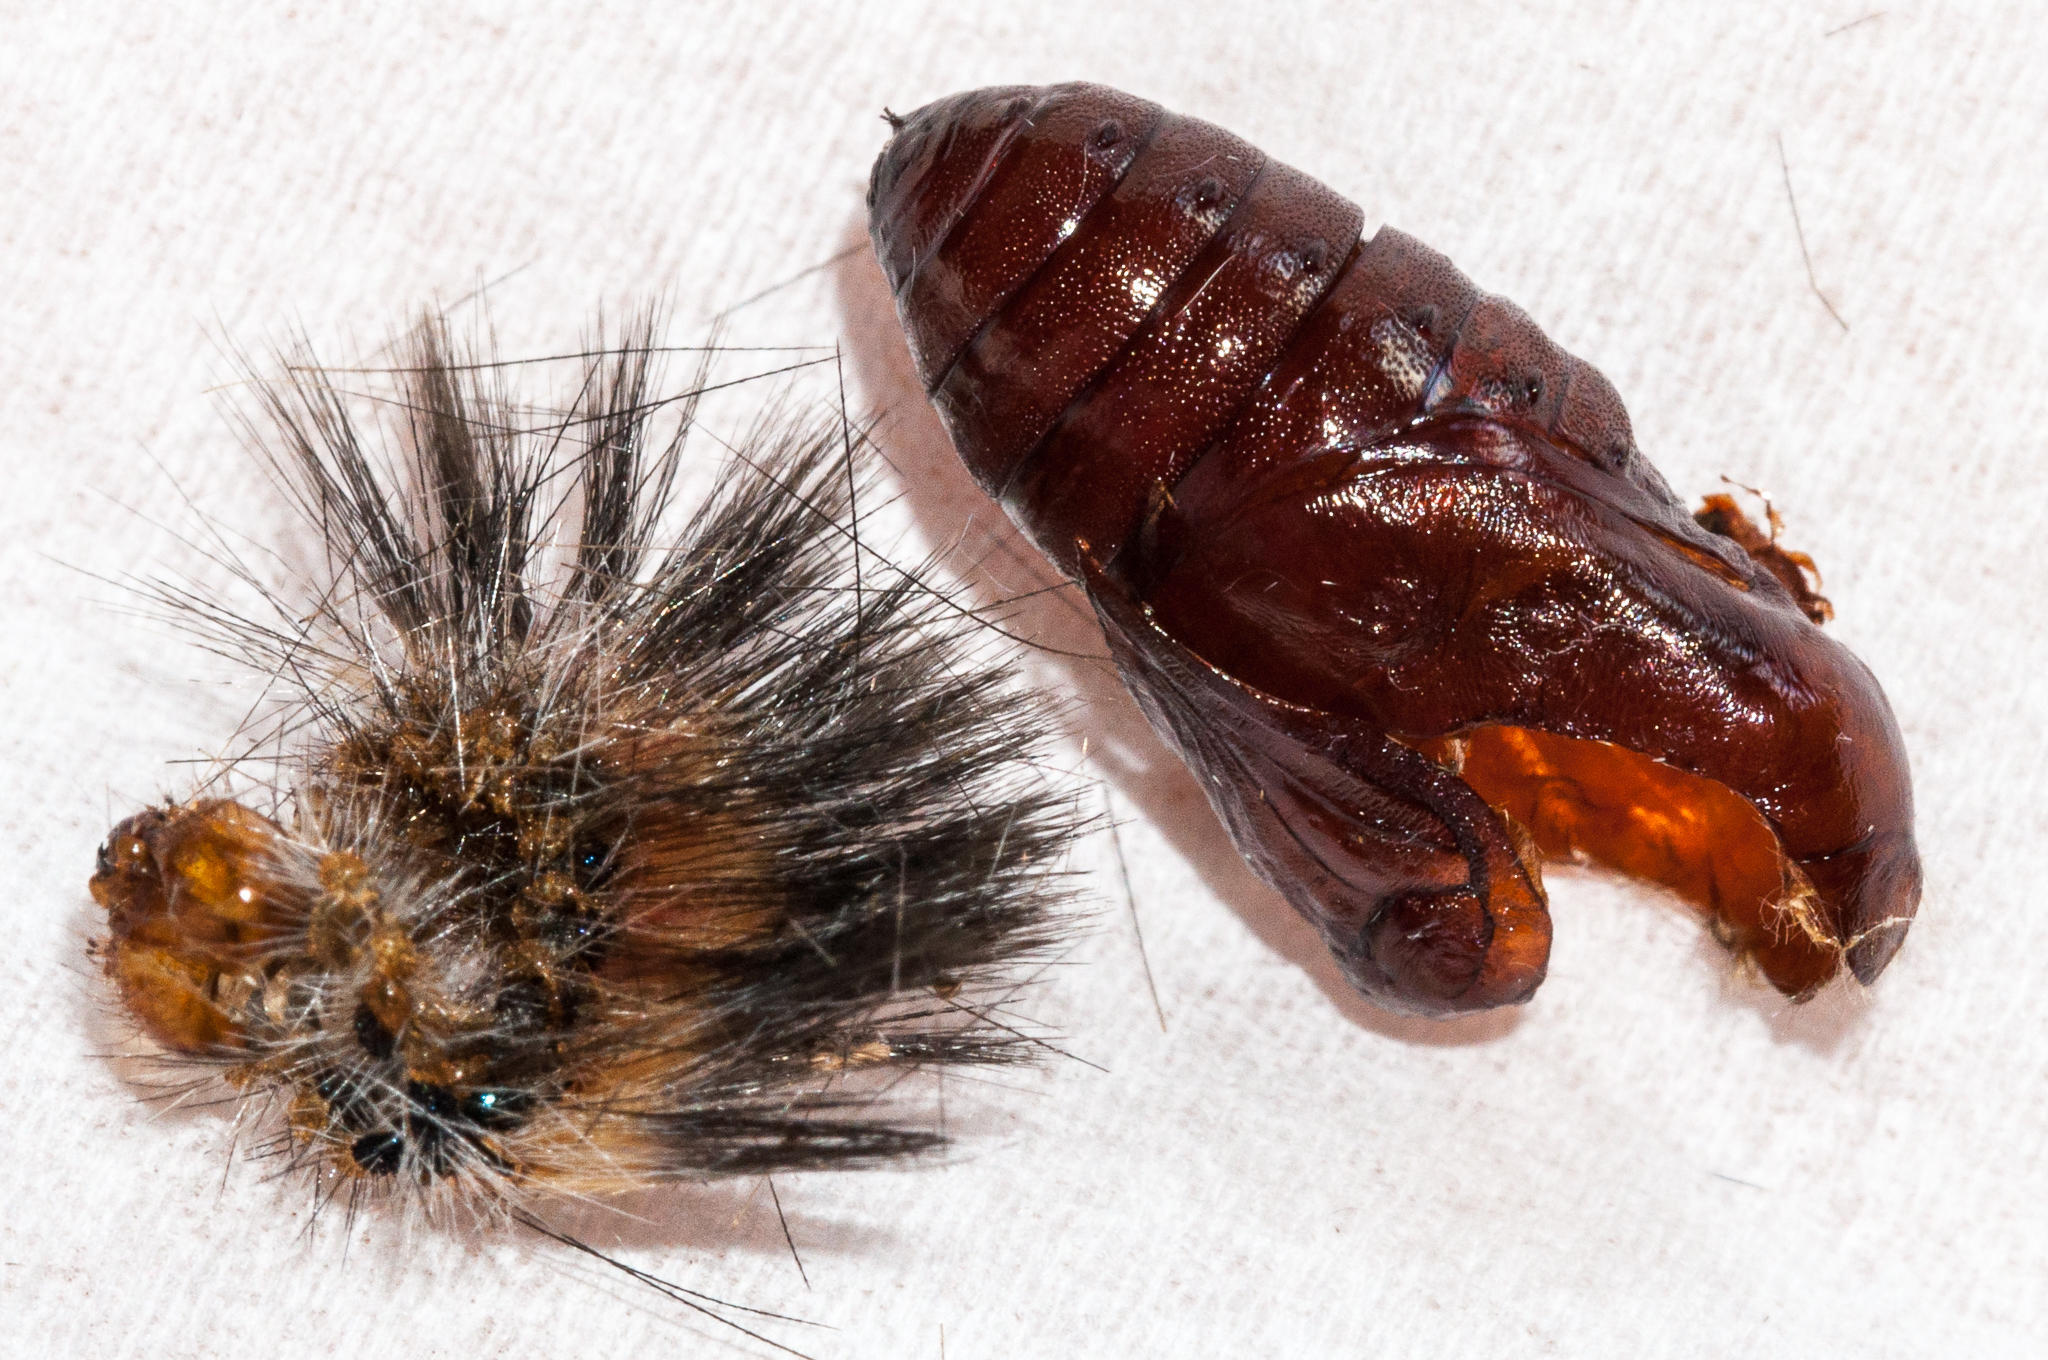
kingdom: Animalia
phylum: Arthropoda
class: Insecta
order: Lepidoptera
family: Erebidae
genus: Paralacydes
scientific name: Paralacydes vocula
